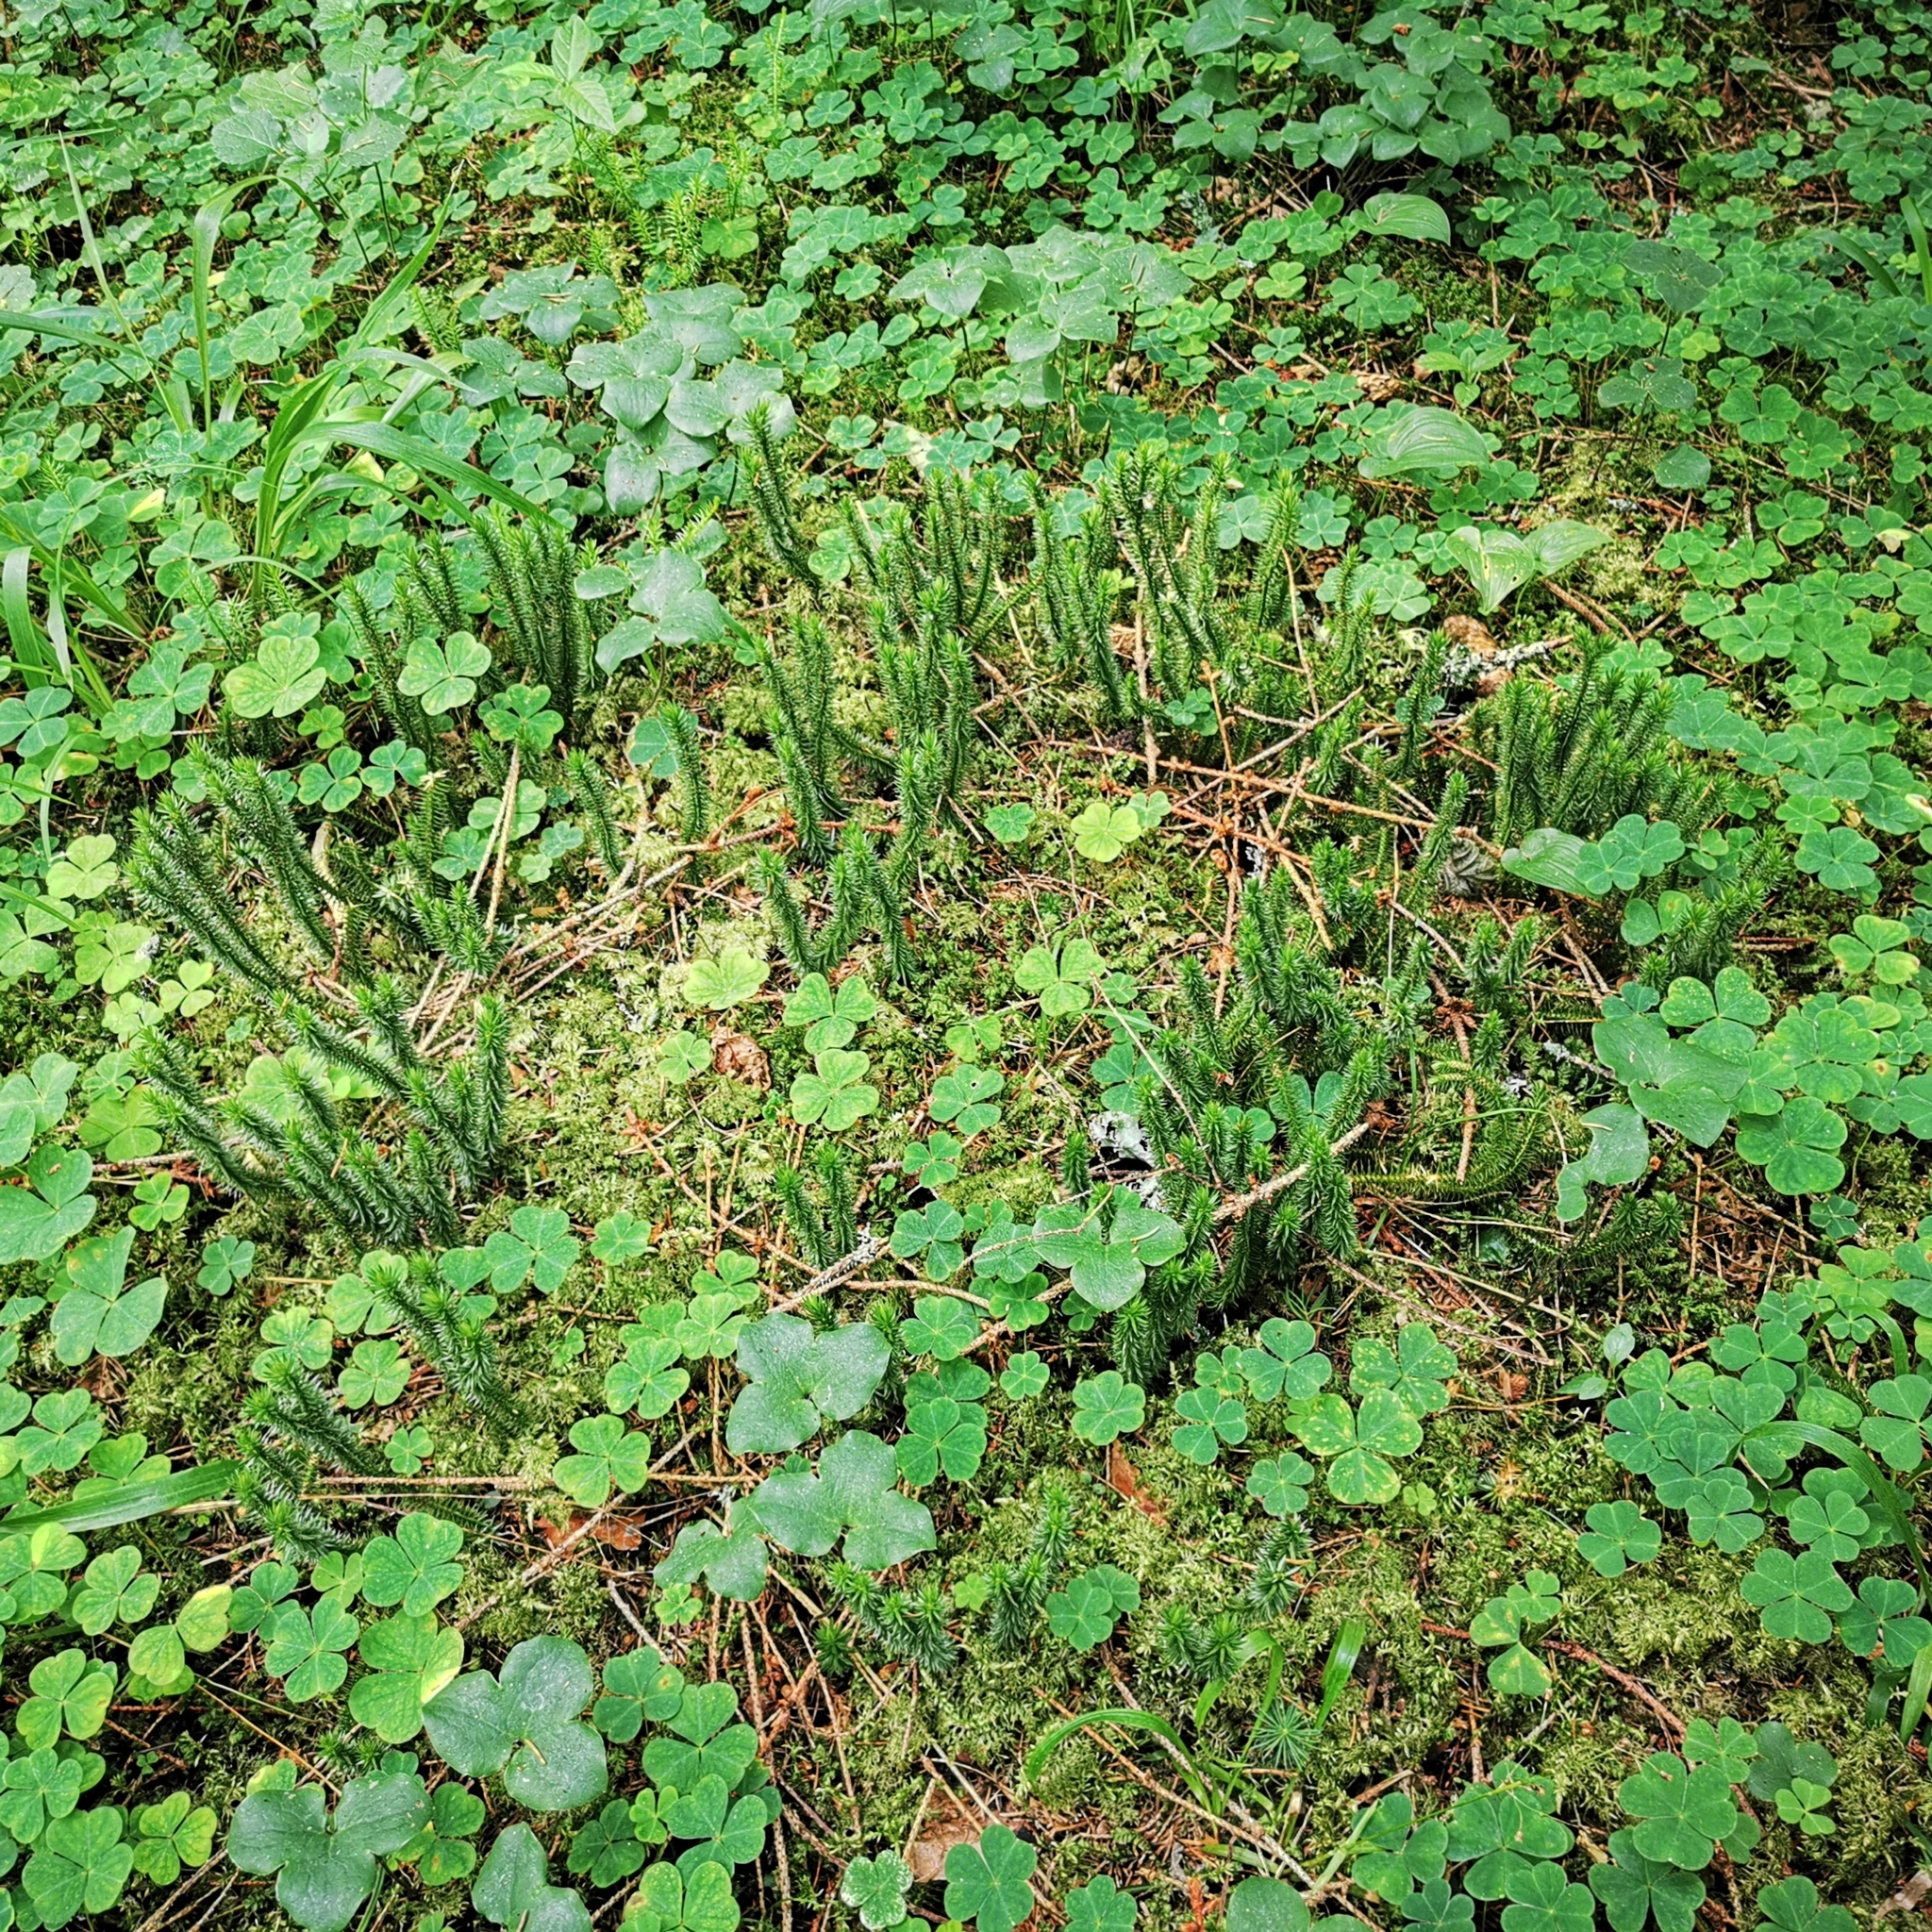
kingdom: Plantae
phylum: Tracheophyta
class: Lycopodiopsida
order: Lycopodiales
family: Lycopodiaceae
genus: Huperzia
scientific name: Huperzia selago
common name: Northern firmoss
